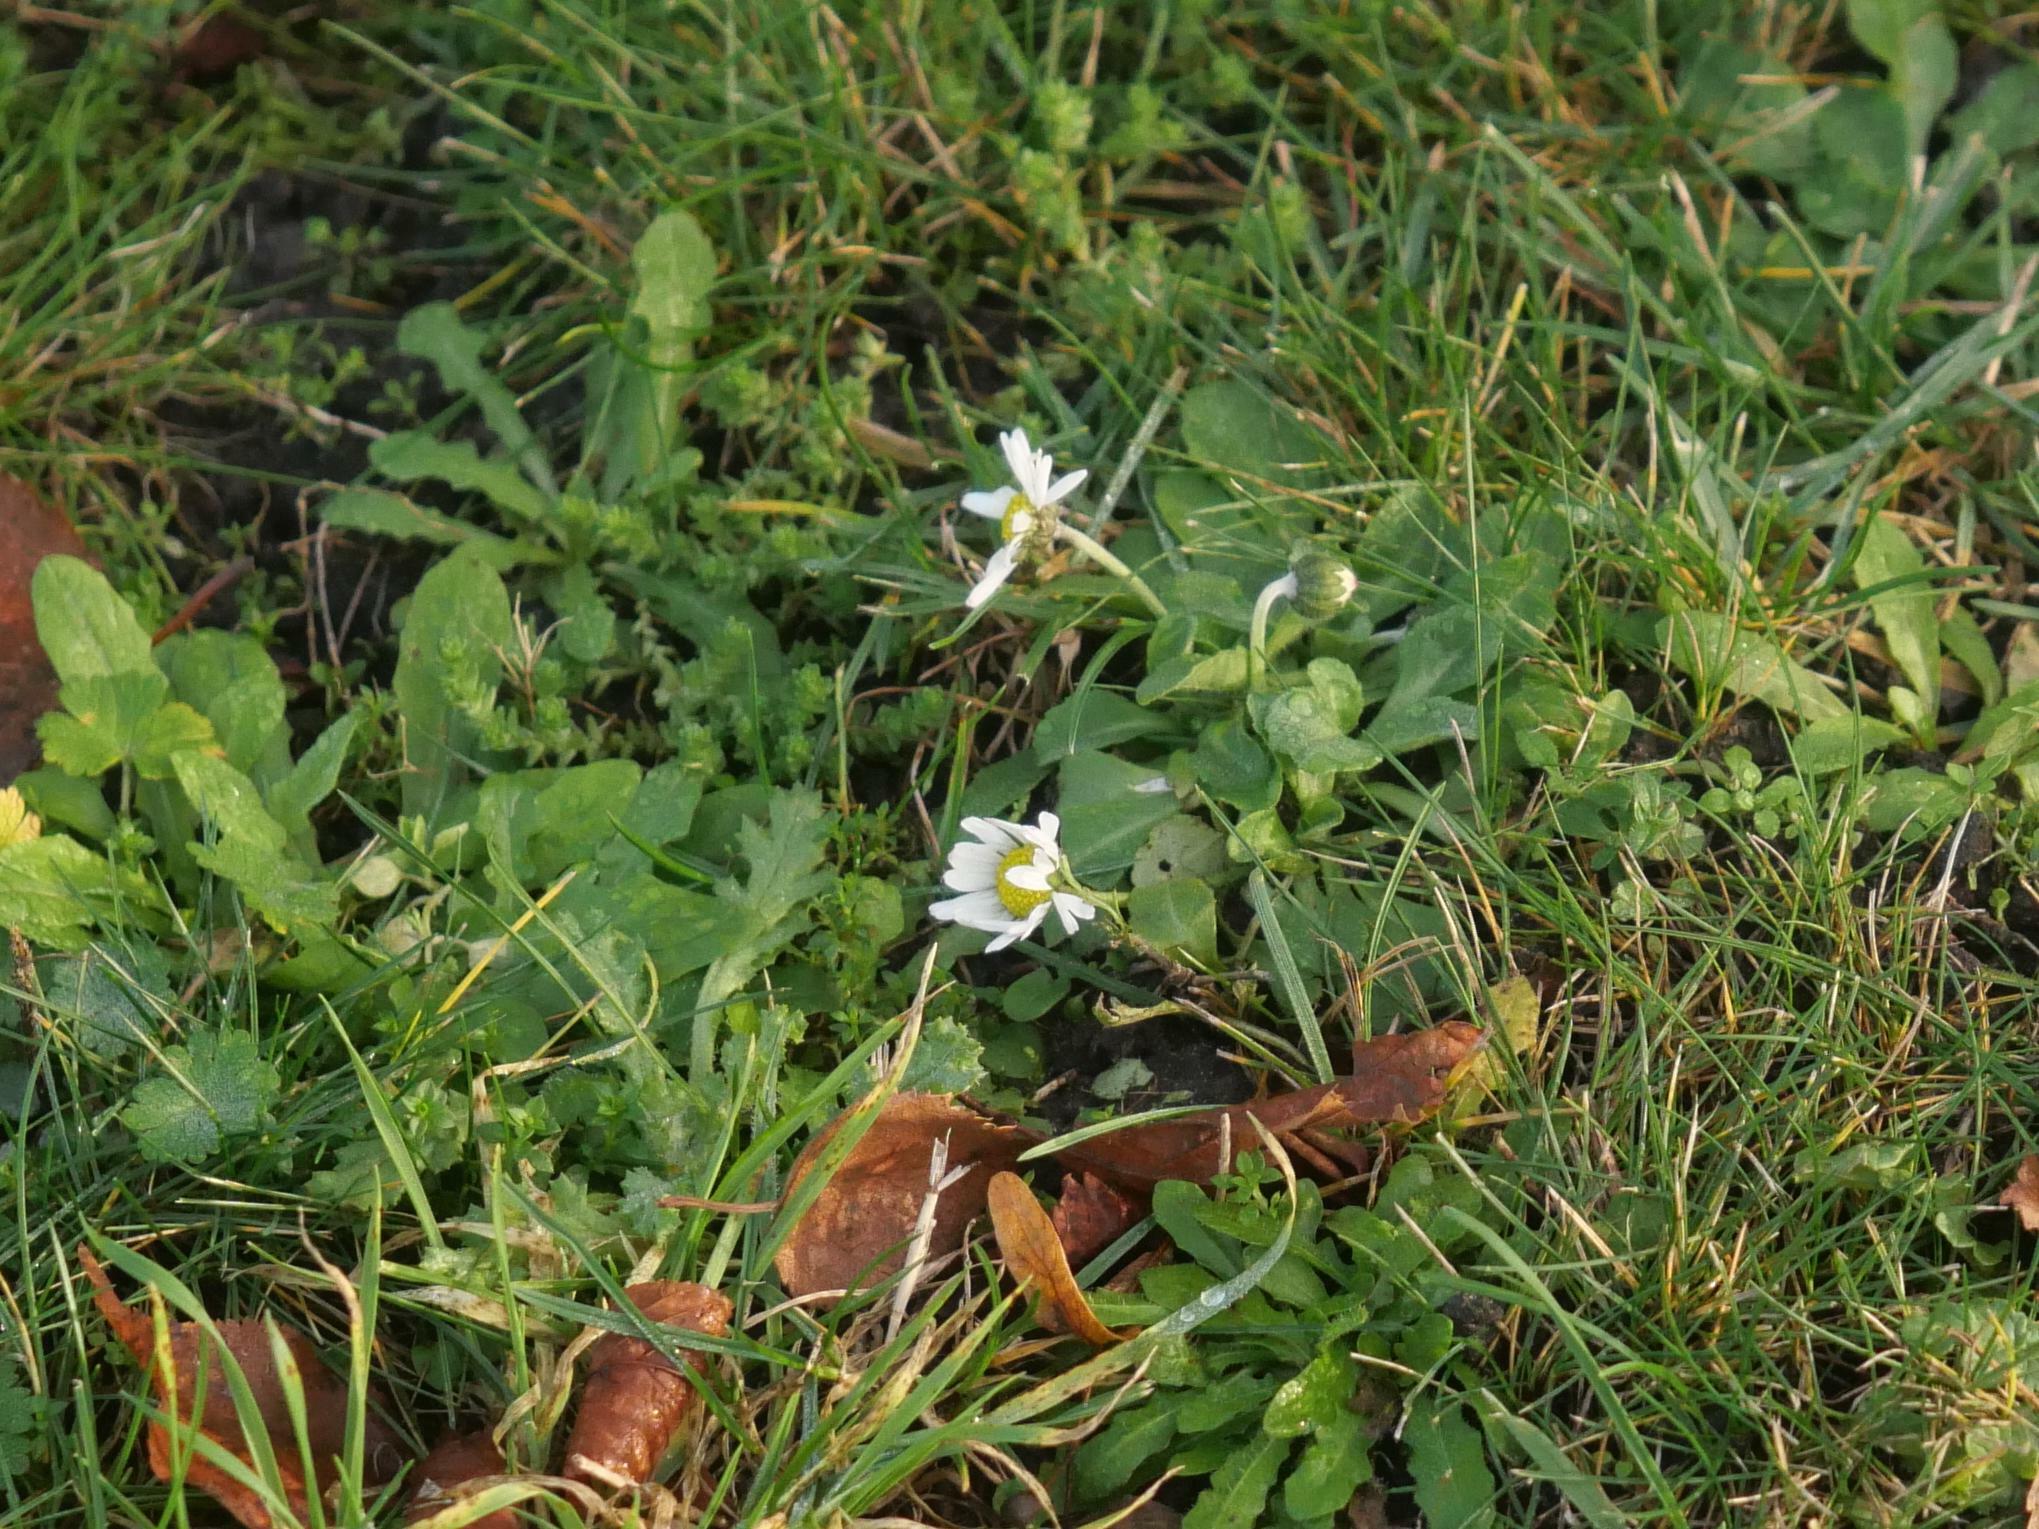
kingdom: Plantae
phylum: Tracheophyta
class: Magnoliopsida
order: Asterales
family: Asteraceae
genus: Bellis
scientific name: Bellis perennis
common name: Lawndaisy
